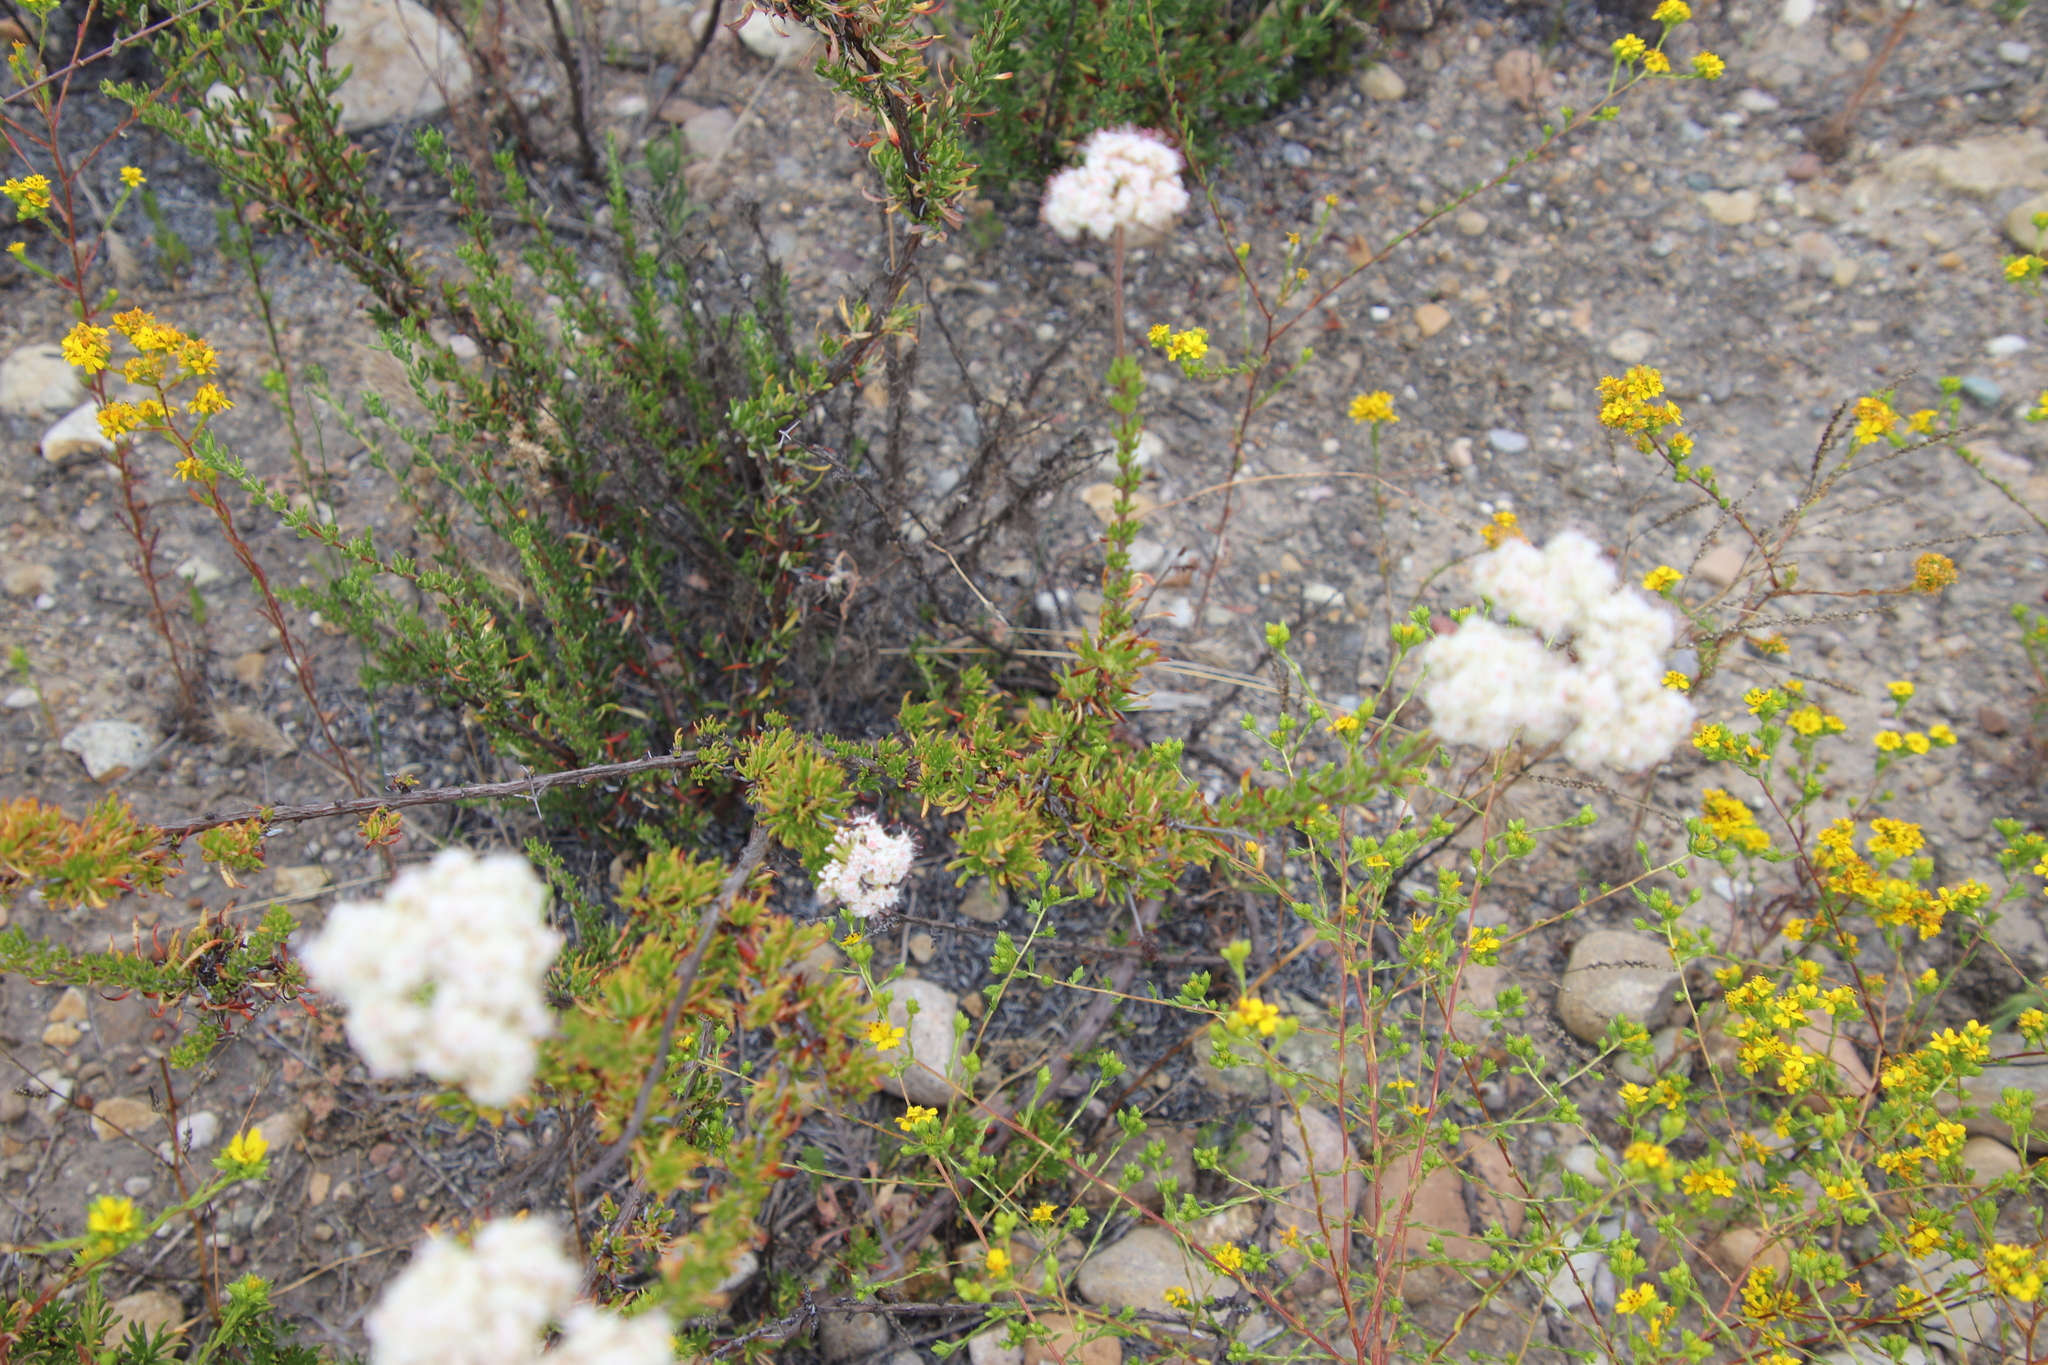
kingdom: Plantae
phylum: Tracheophyta
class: Magnoliopsida
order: Caryophyllales
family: Polygonaceae
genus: Eriogonum
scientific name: Eriogonum fasciculatum
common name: California wild buckwheat
